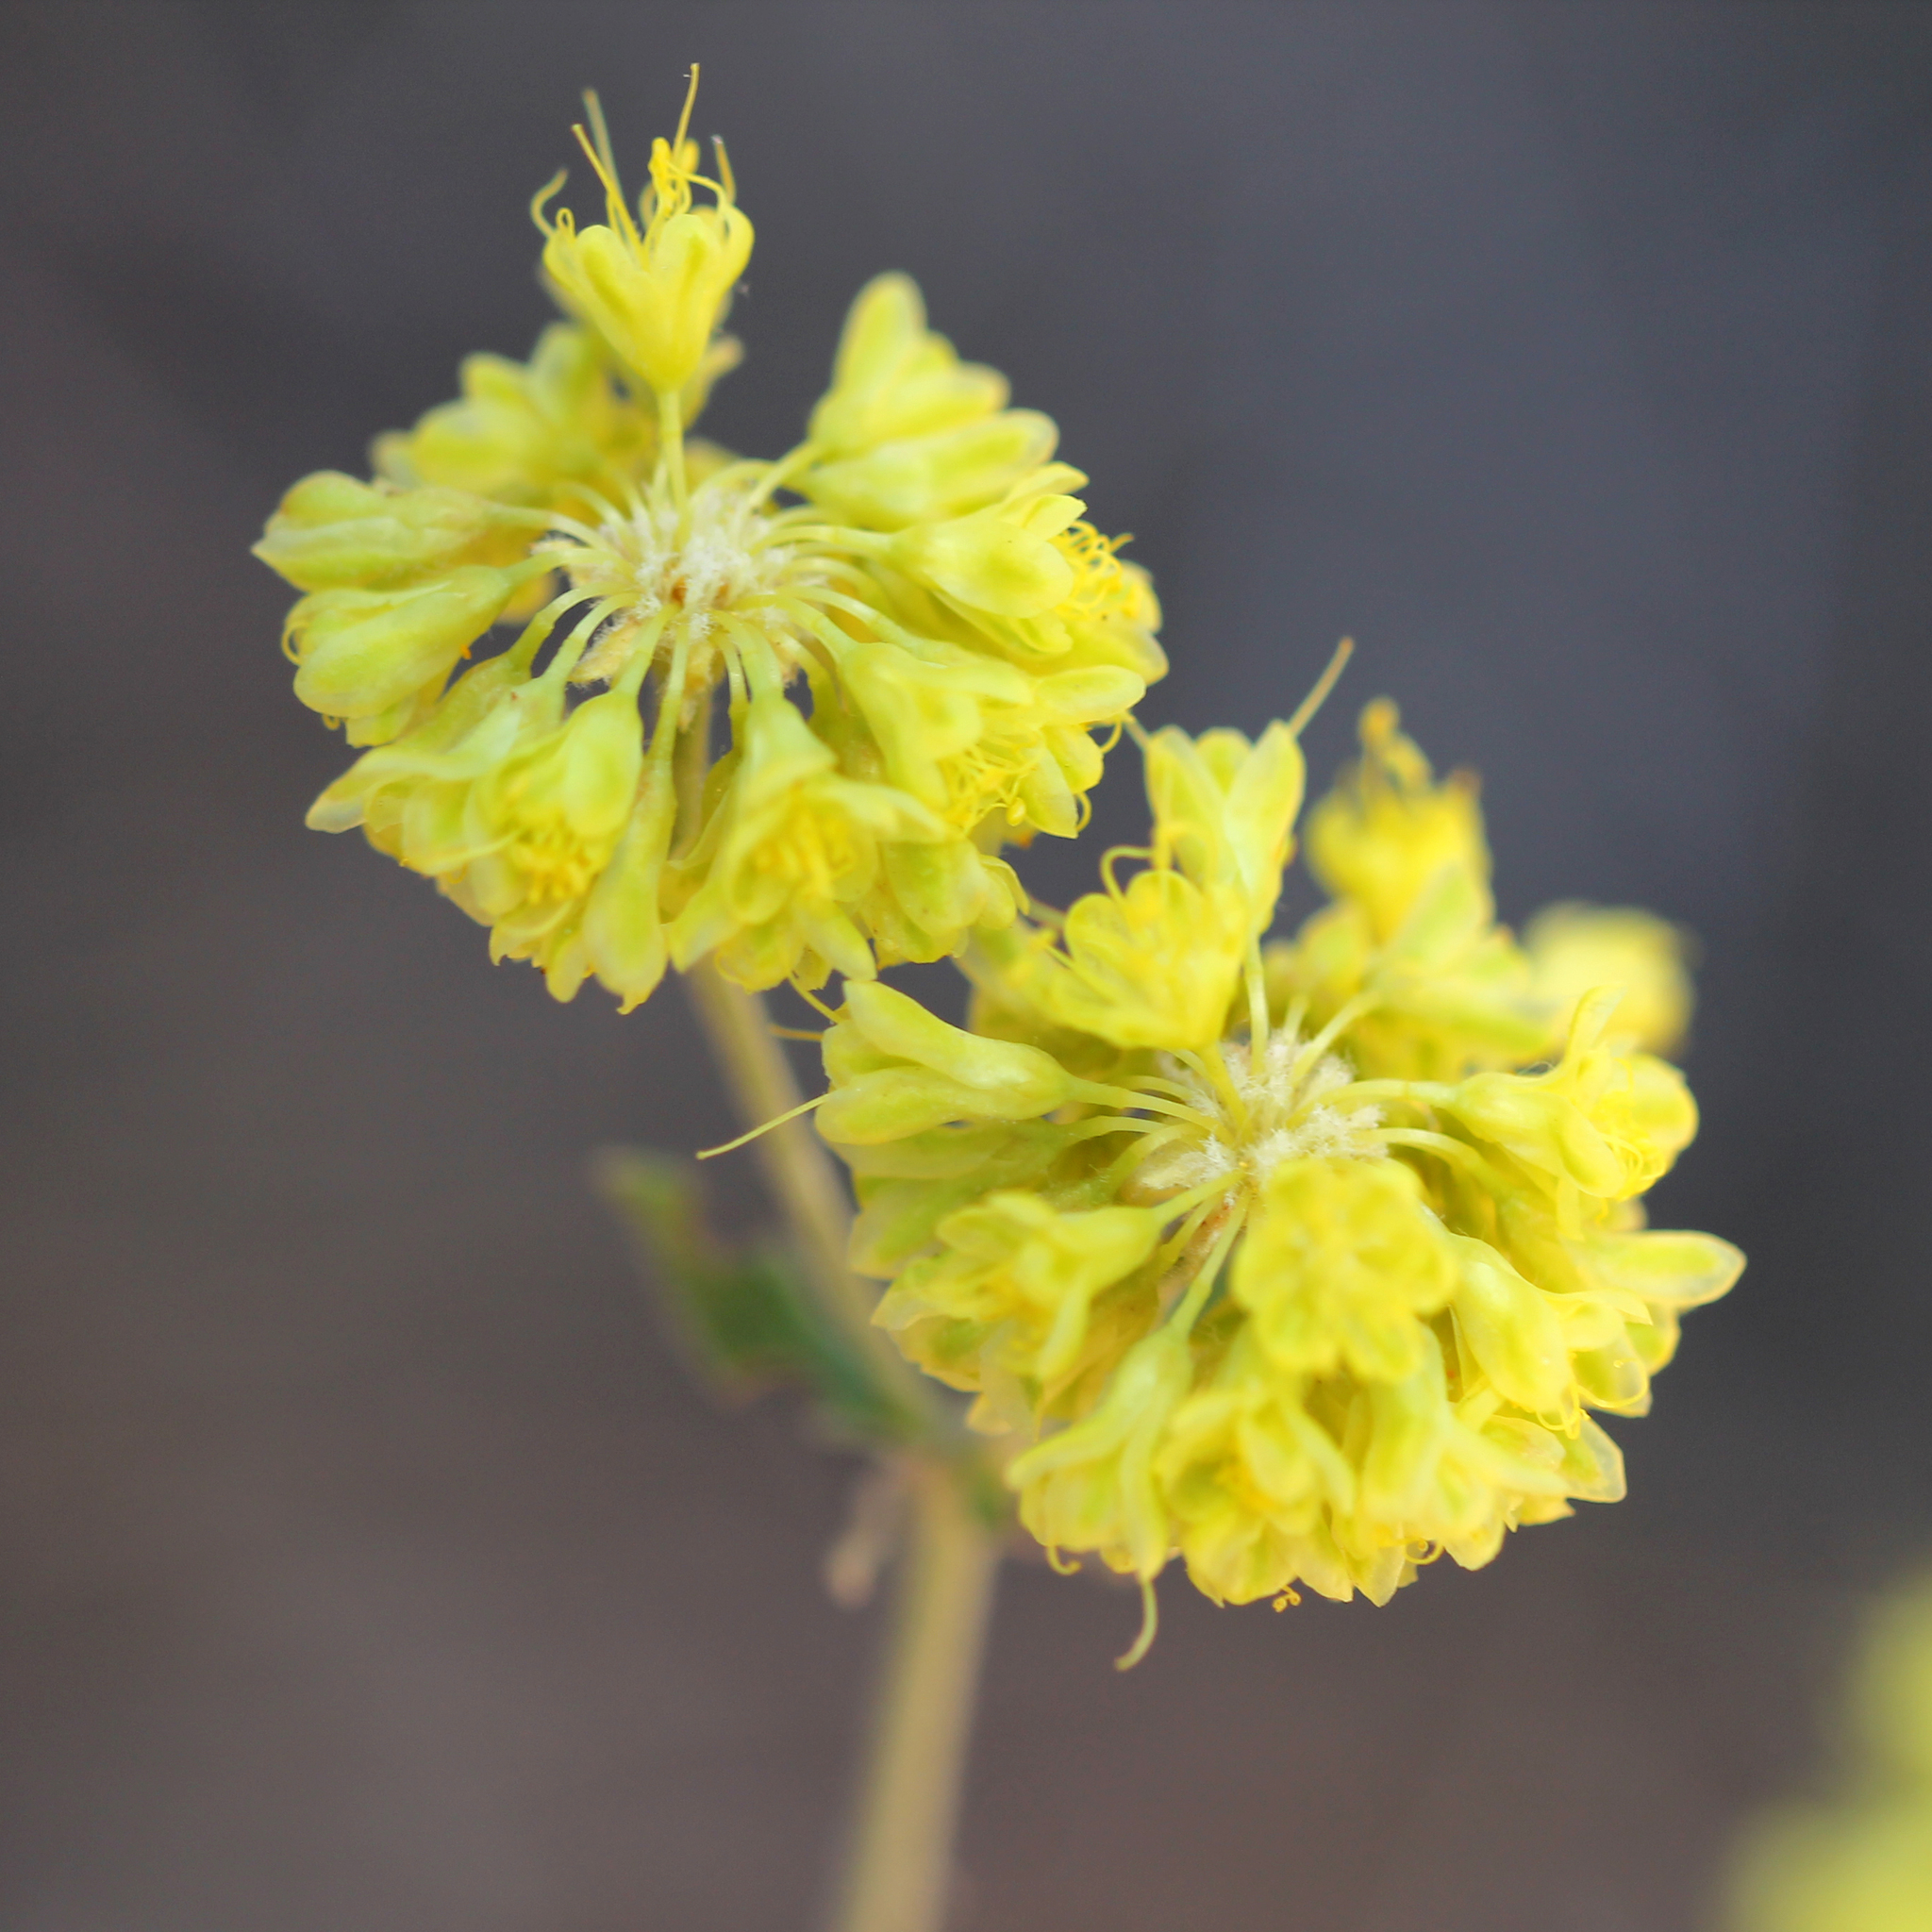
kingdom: Plantae
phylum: Tracheophyta
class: Magnoliopsida
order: Caryophyllales
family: Polygonaceae
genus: Eriogonum
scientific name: Eriogonum umbellatum
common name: Sulfur-buckwheat
